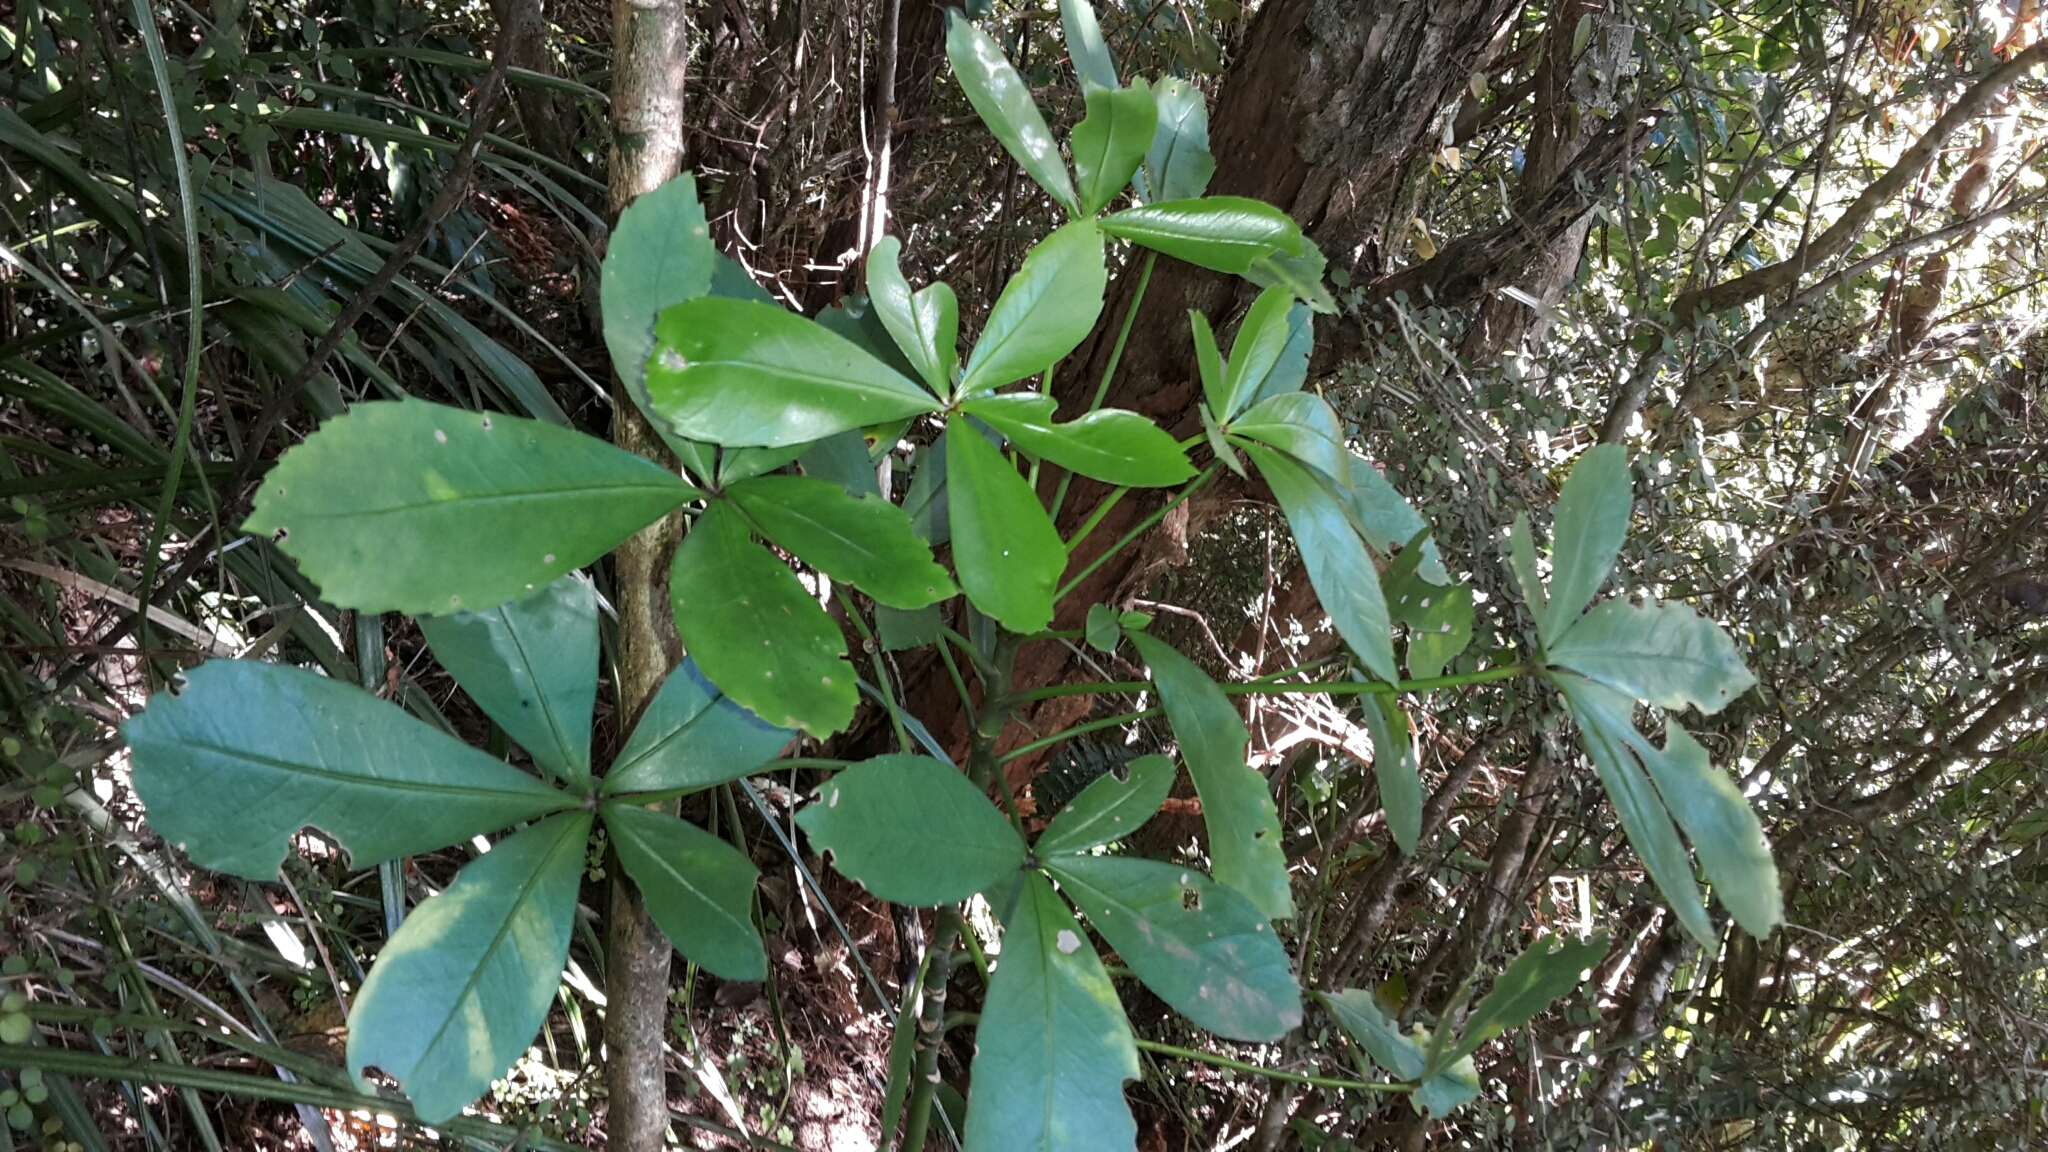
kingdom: Plantae
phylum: Tracheophyta
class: Magnoliopsida
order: Apiales
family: Araliaceae
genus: Pseudopanax
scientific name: Pseudopanax lessonii
